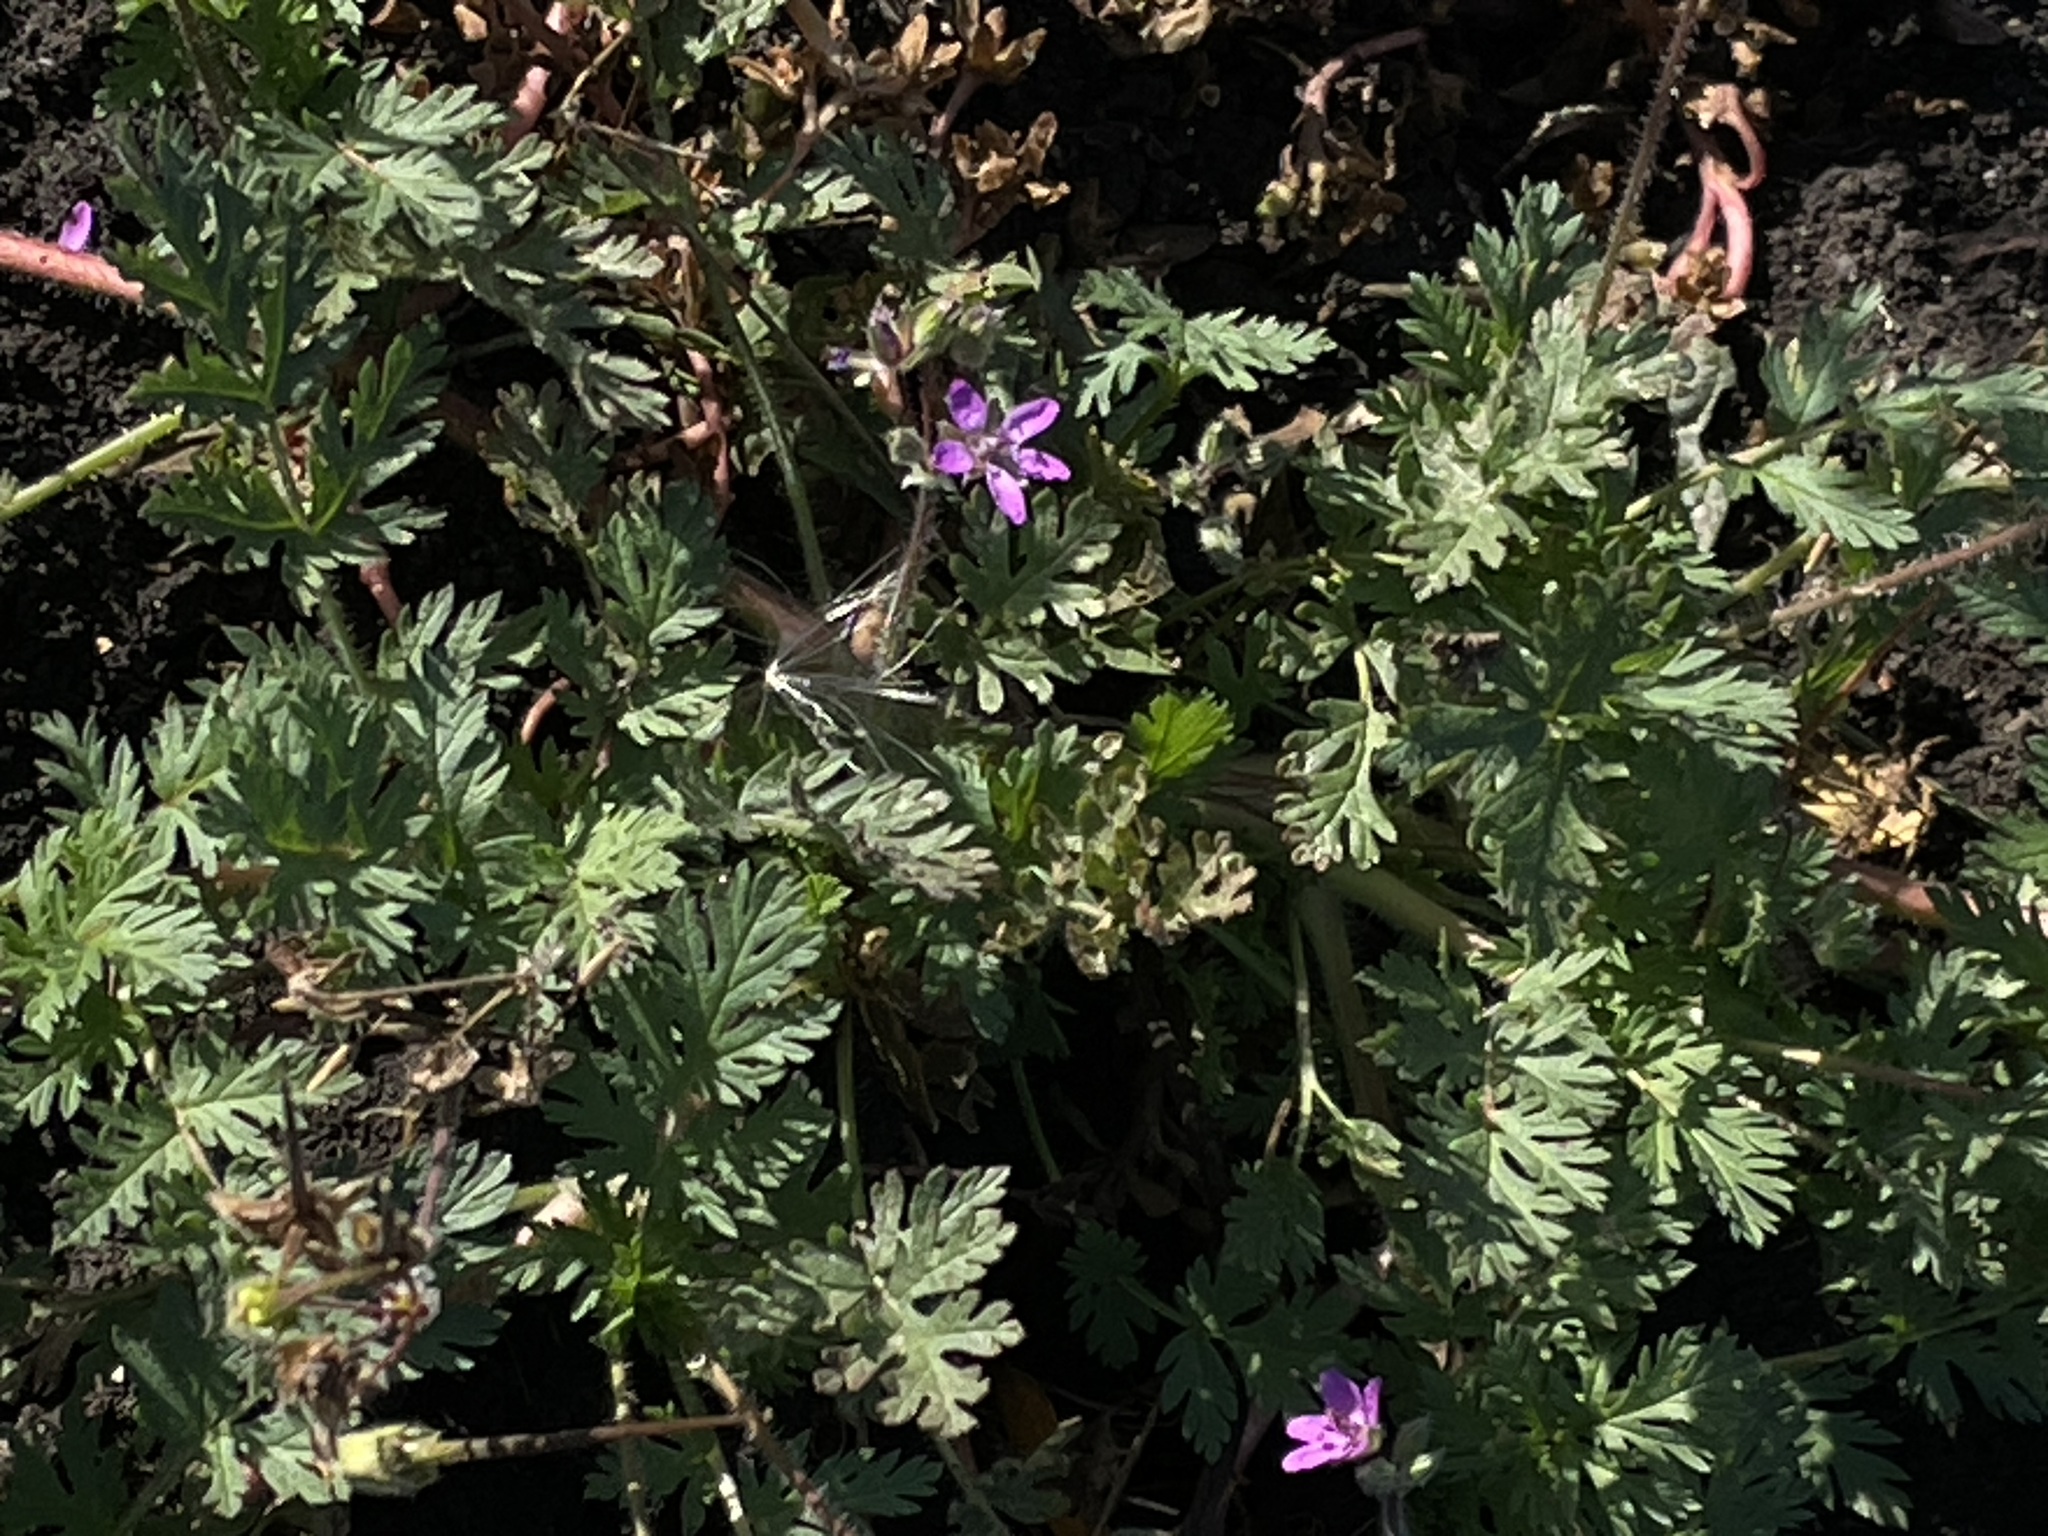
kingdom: Plantae
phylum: Tracheophyta
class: Magnoliopsida
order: Geraniales
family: Geraniaceae
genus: Erodium
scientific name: Erodium cicutarium
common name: Common stork's-bill
